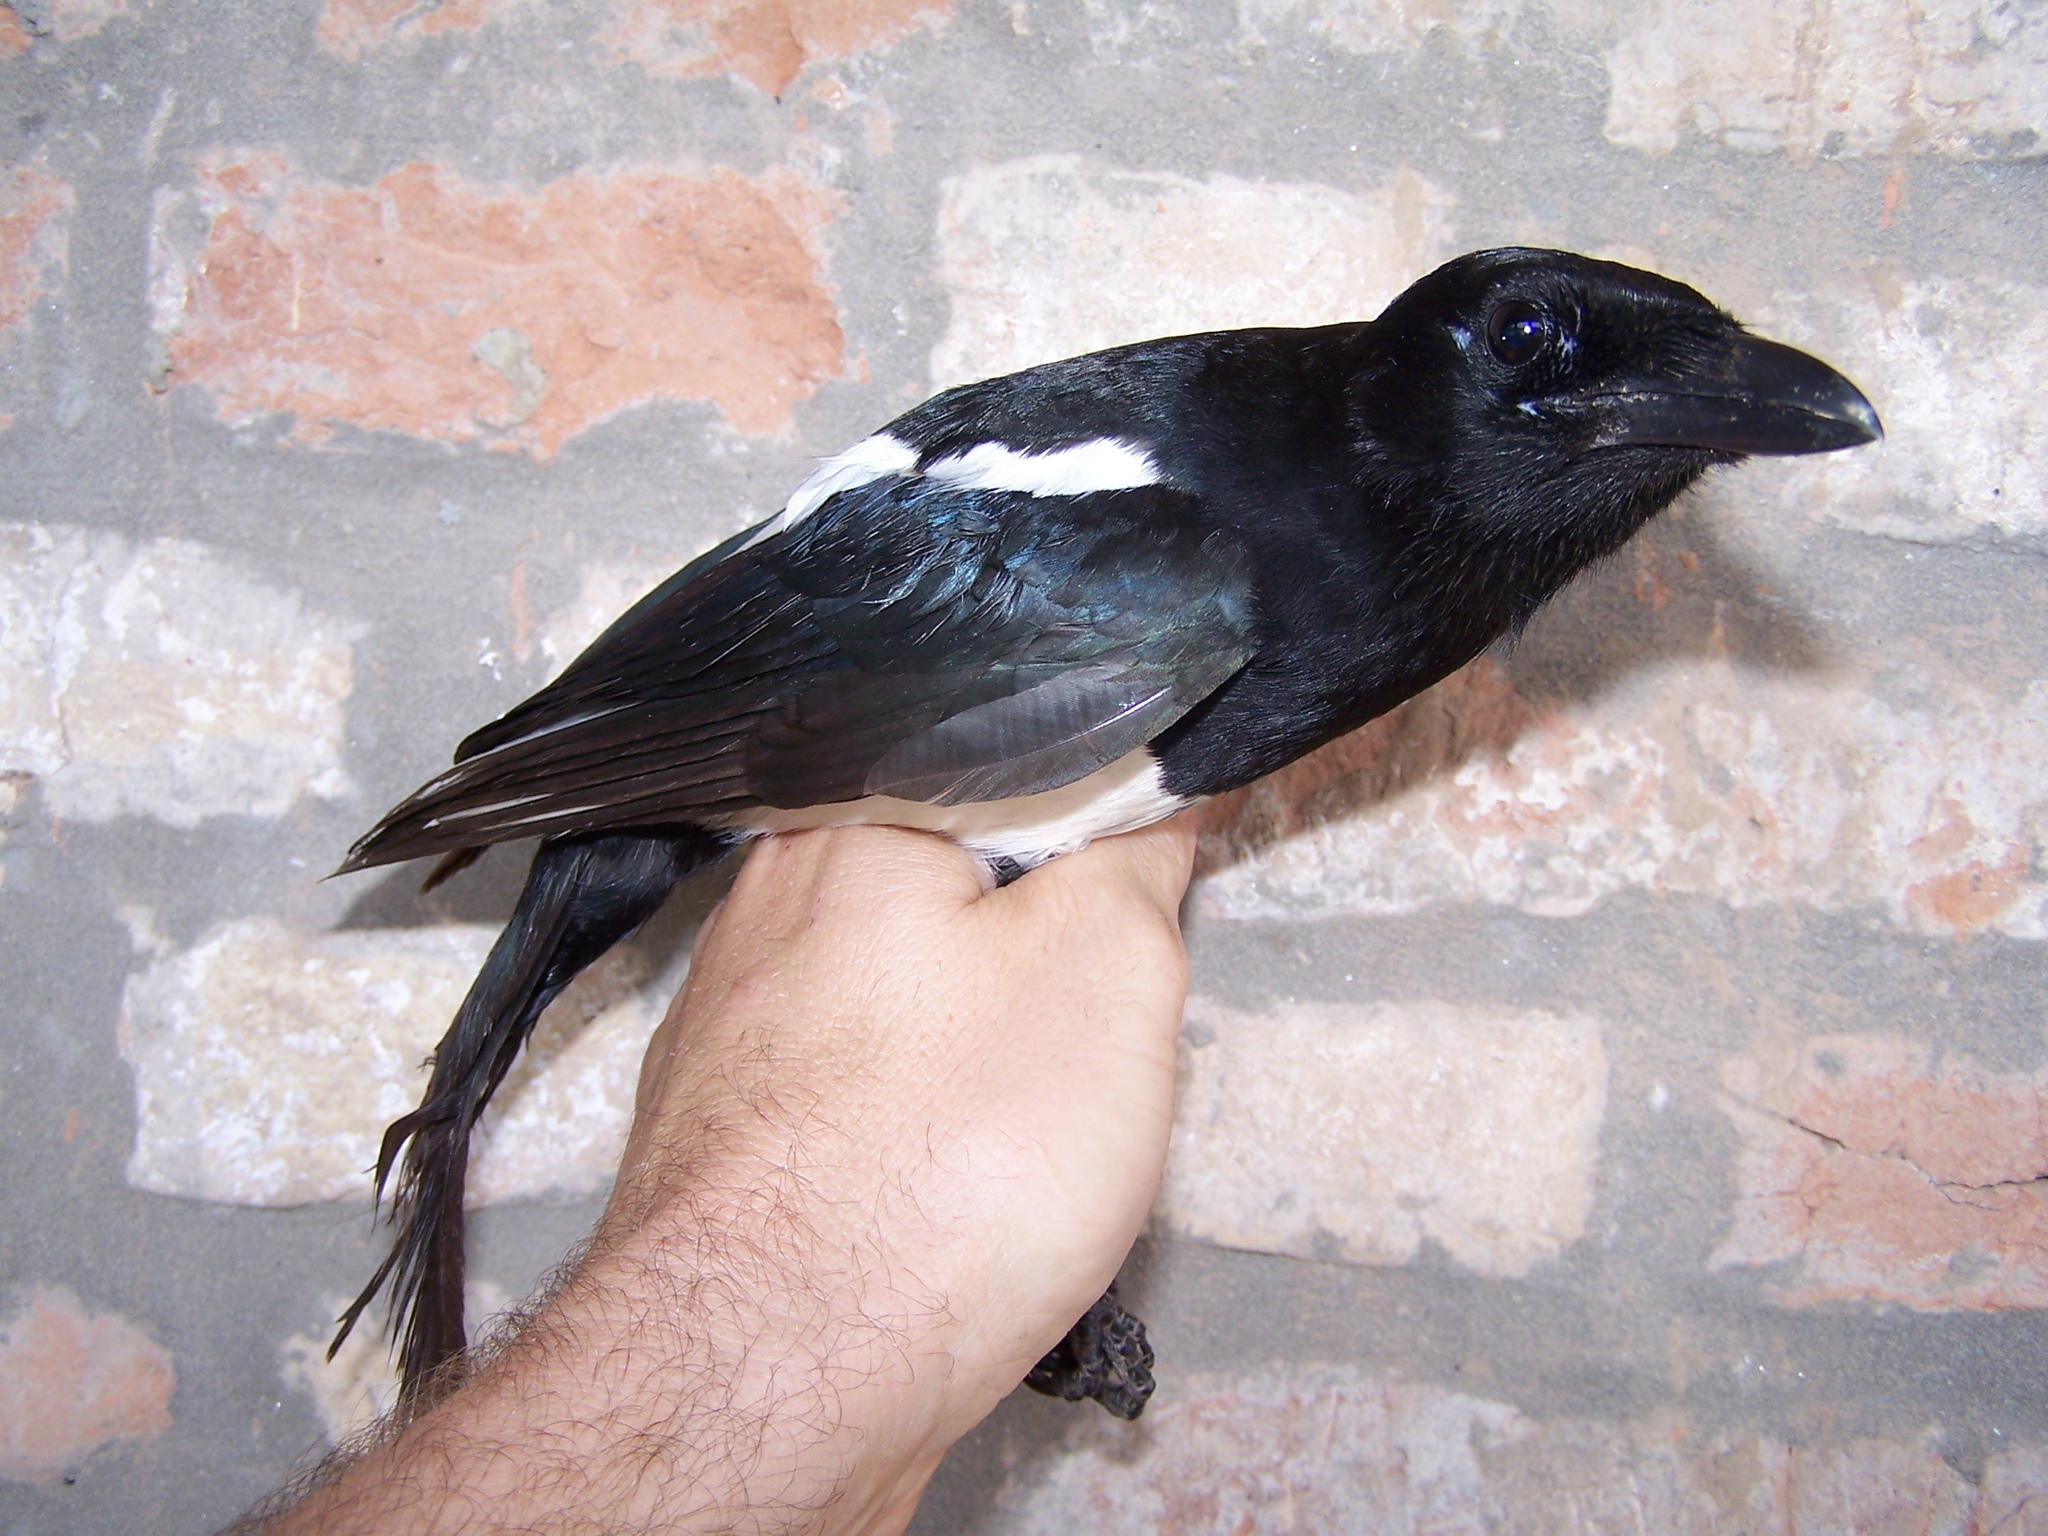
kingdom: Animalia
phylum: Chordata
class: Aves
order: Passeriformes
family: Corvidae
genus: Pica
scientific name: Pica pica
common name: Eurasian magpie
